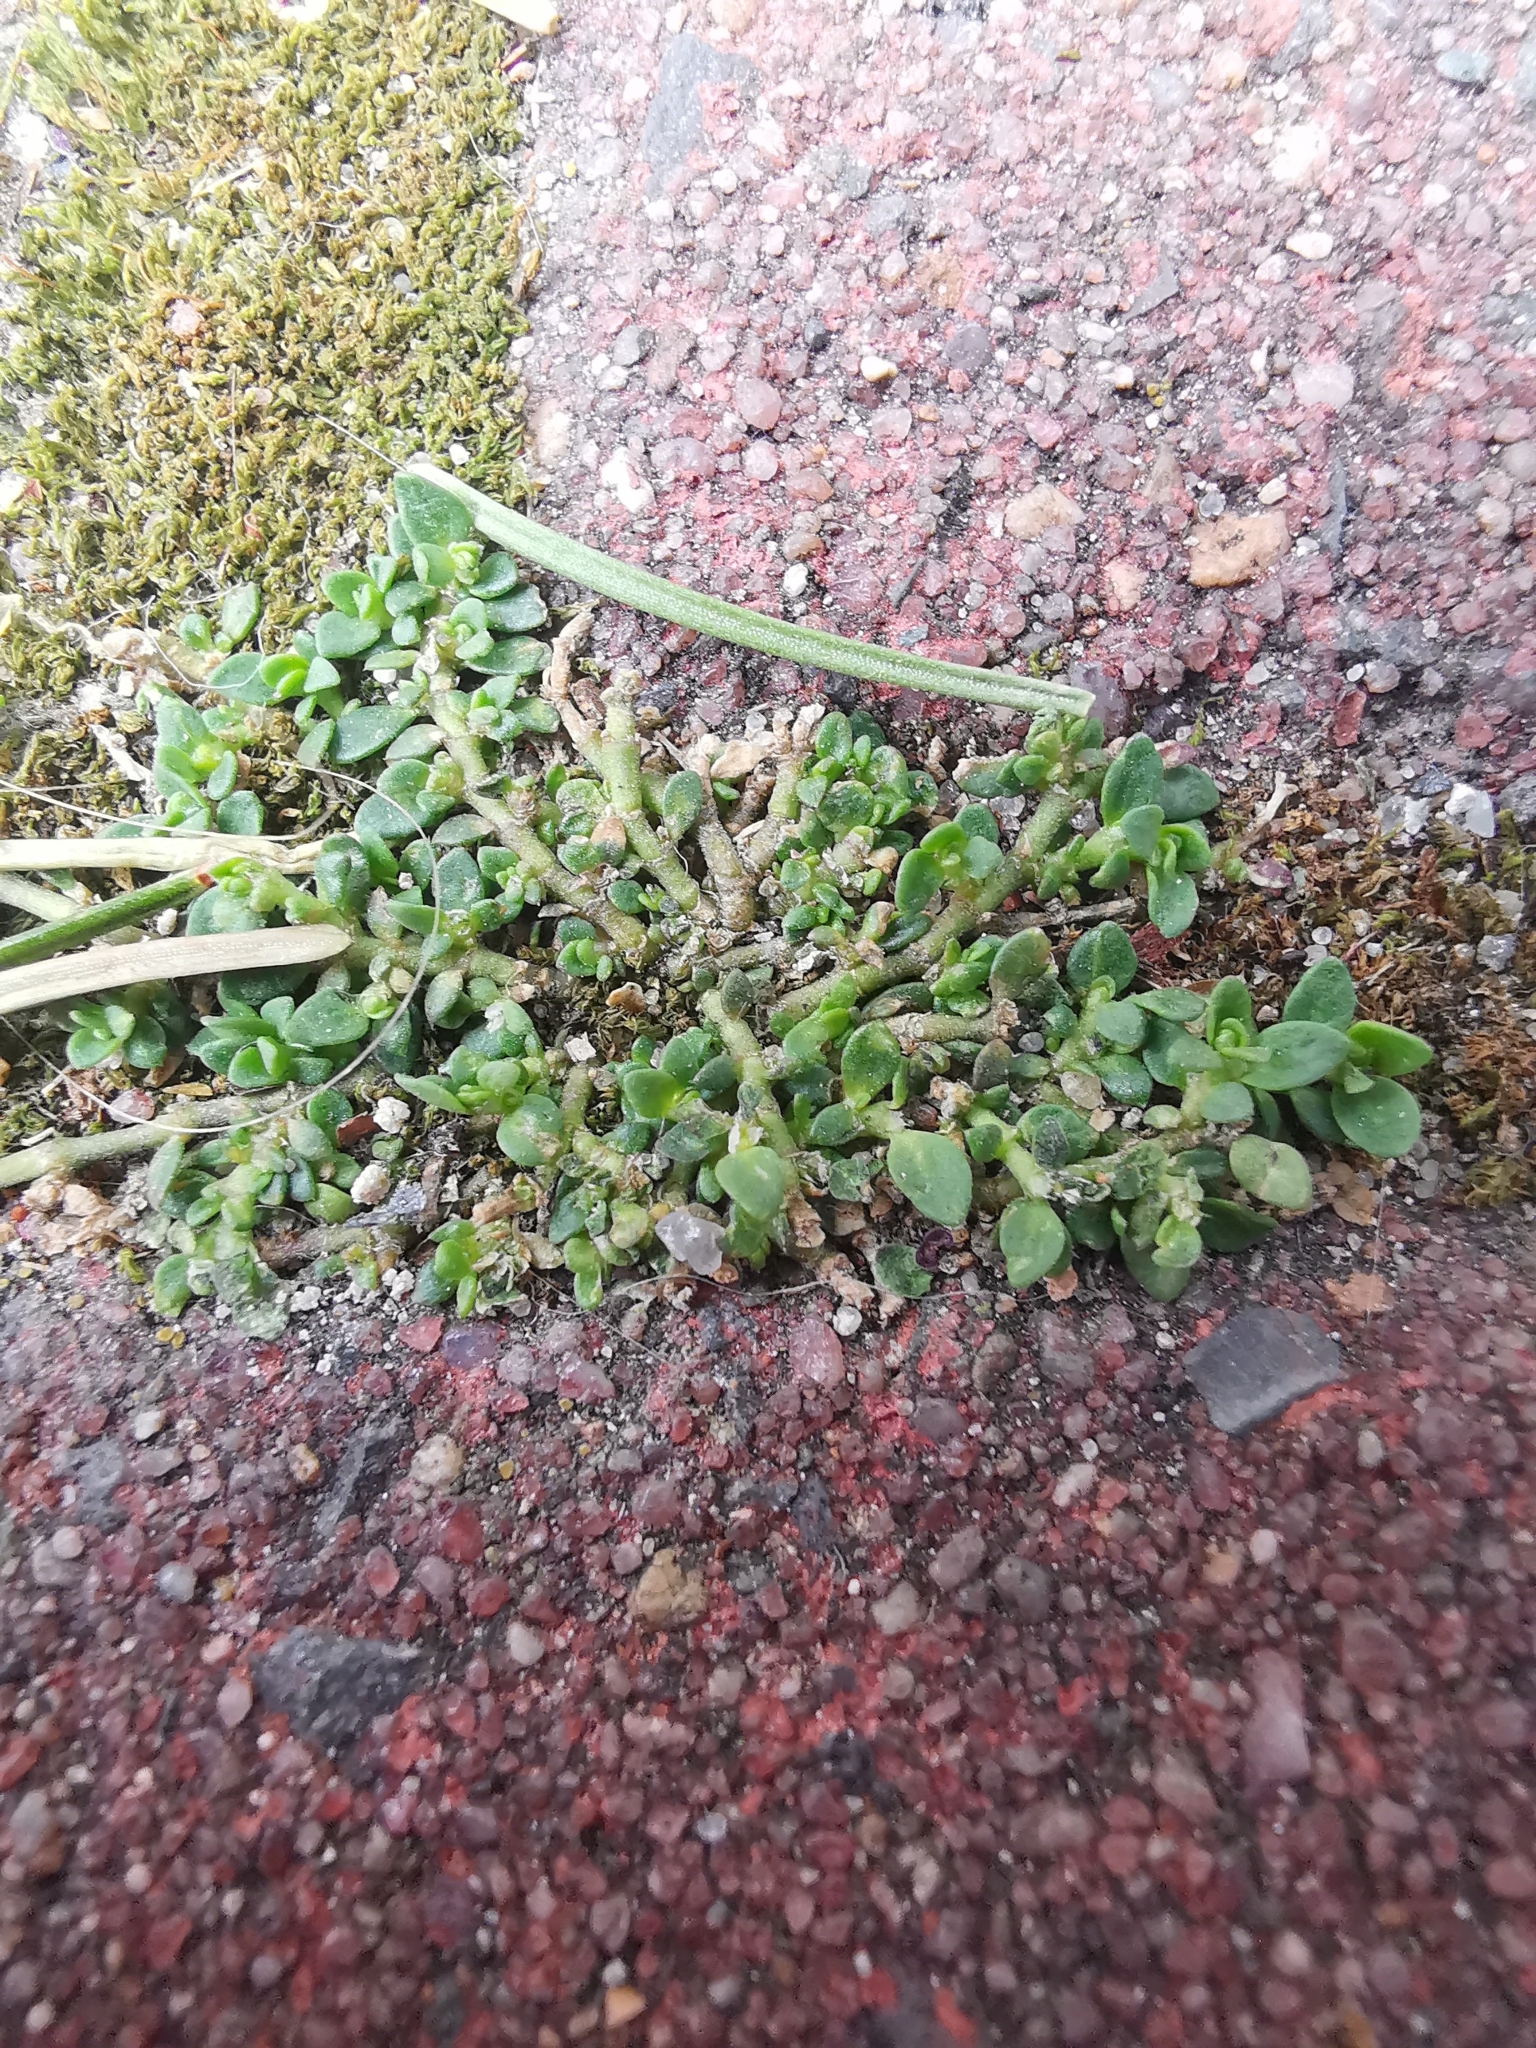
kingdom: Plantae
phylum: Tracheophyta
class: Magnoliopsida
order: Caryophyllales
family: Caryophyllaceae
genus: Herniaria
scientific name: Herniaria glabra
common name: Smooth rupturewort
